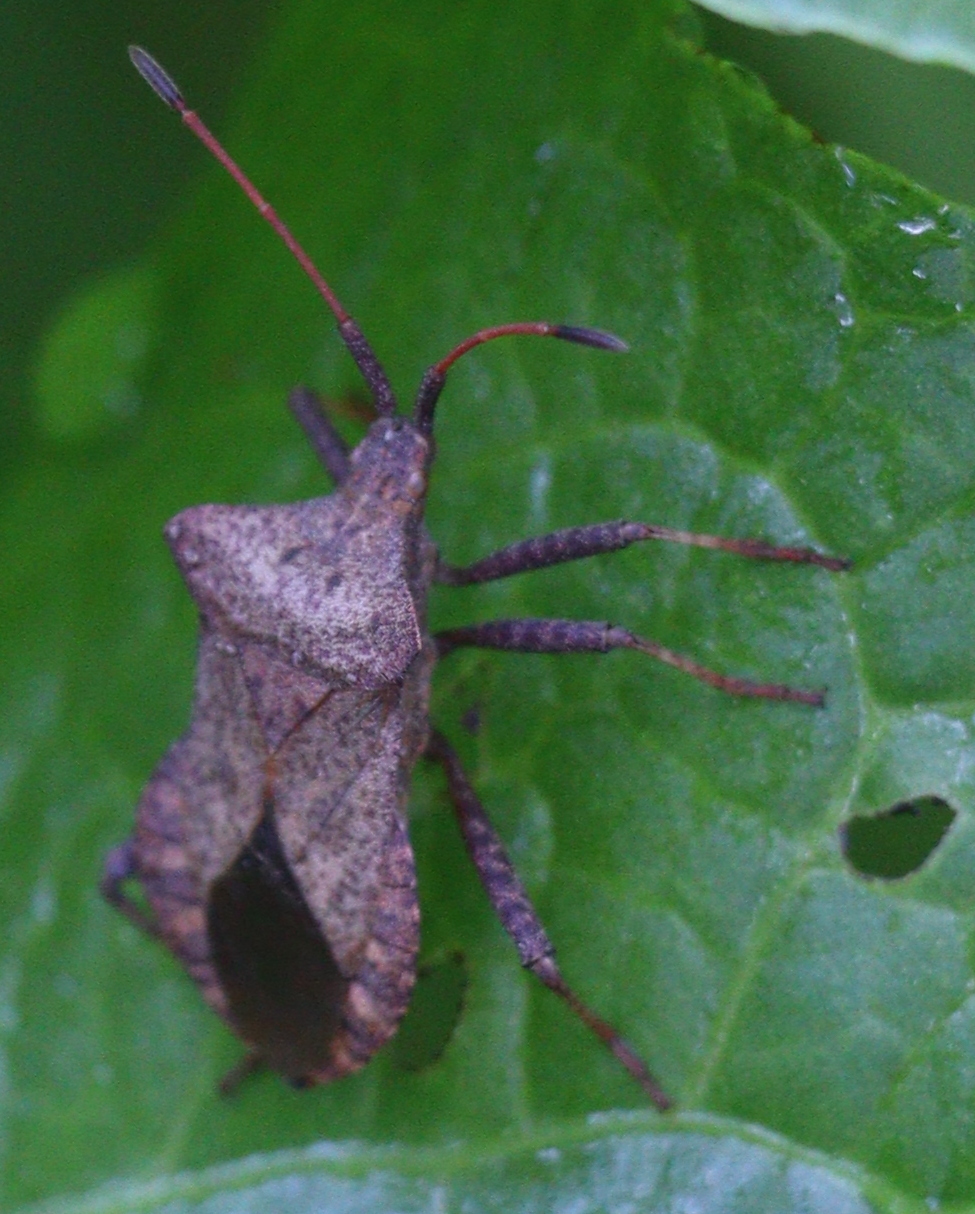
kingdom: Animalia
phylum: Arthropoda
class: Insecta
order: Hemiptera
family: Coreidae
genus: Coreus
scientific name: Coreus marginatus
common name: Dock bug
